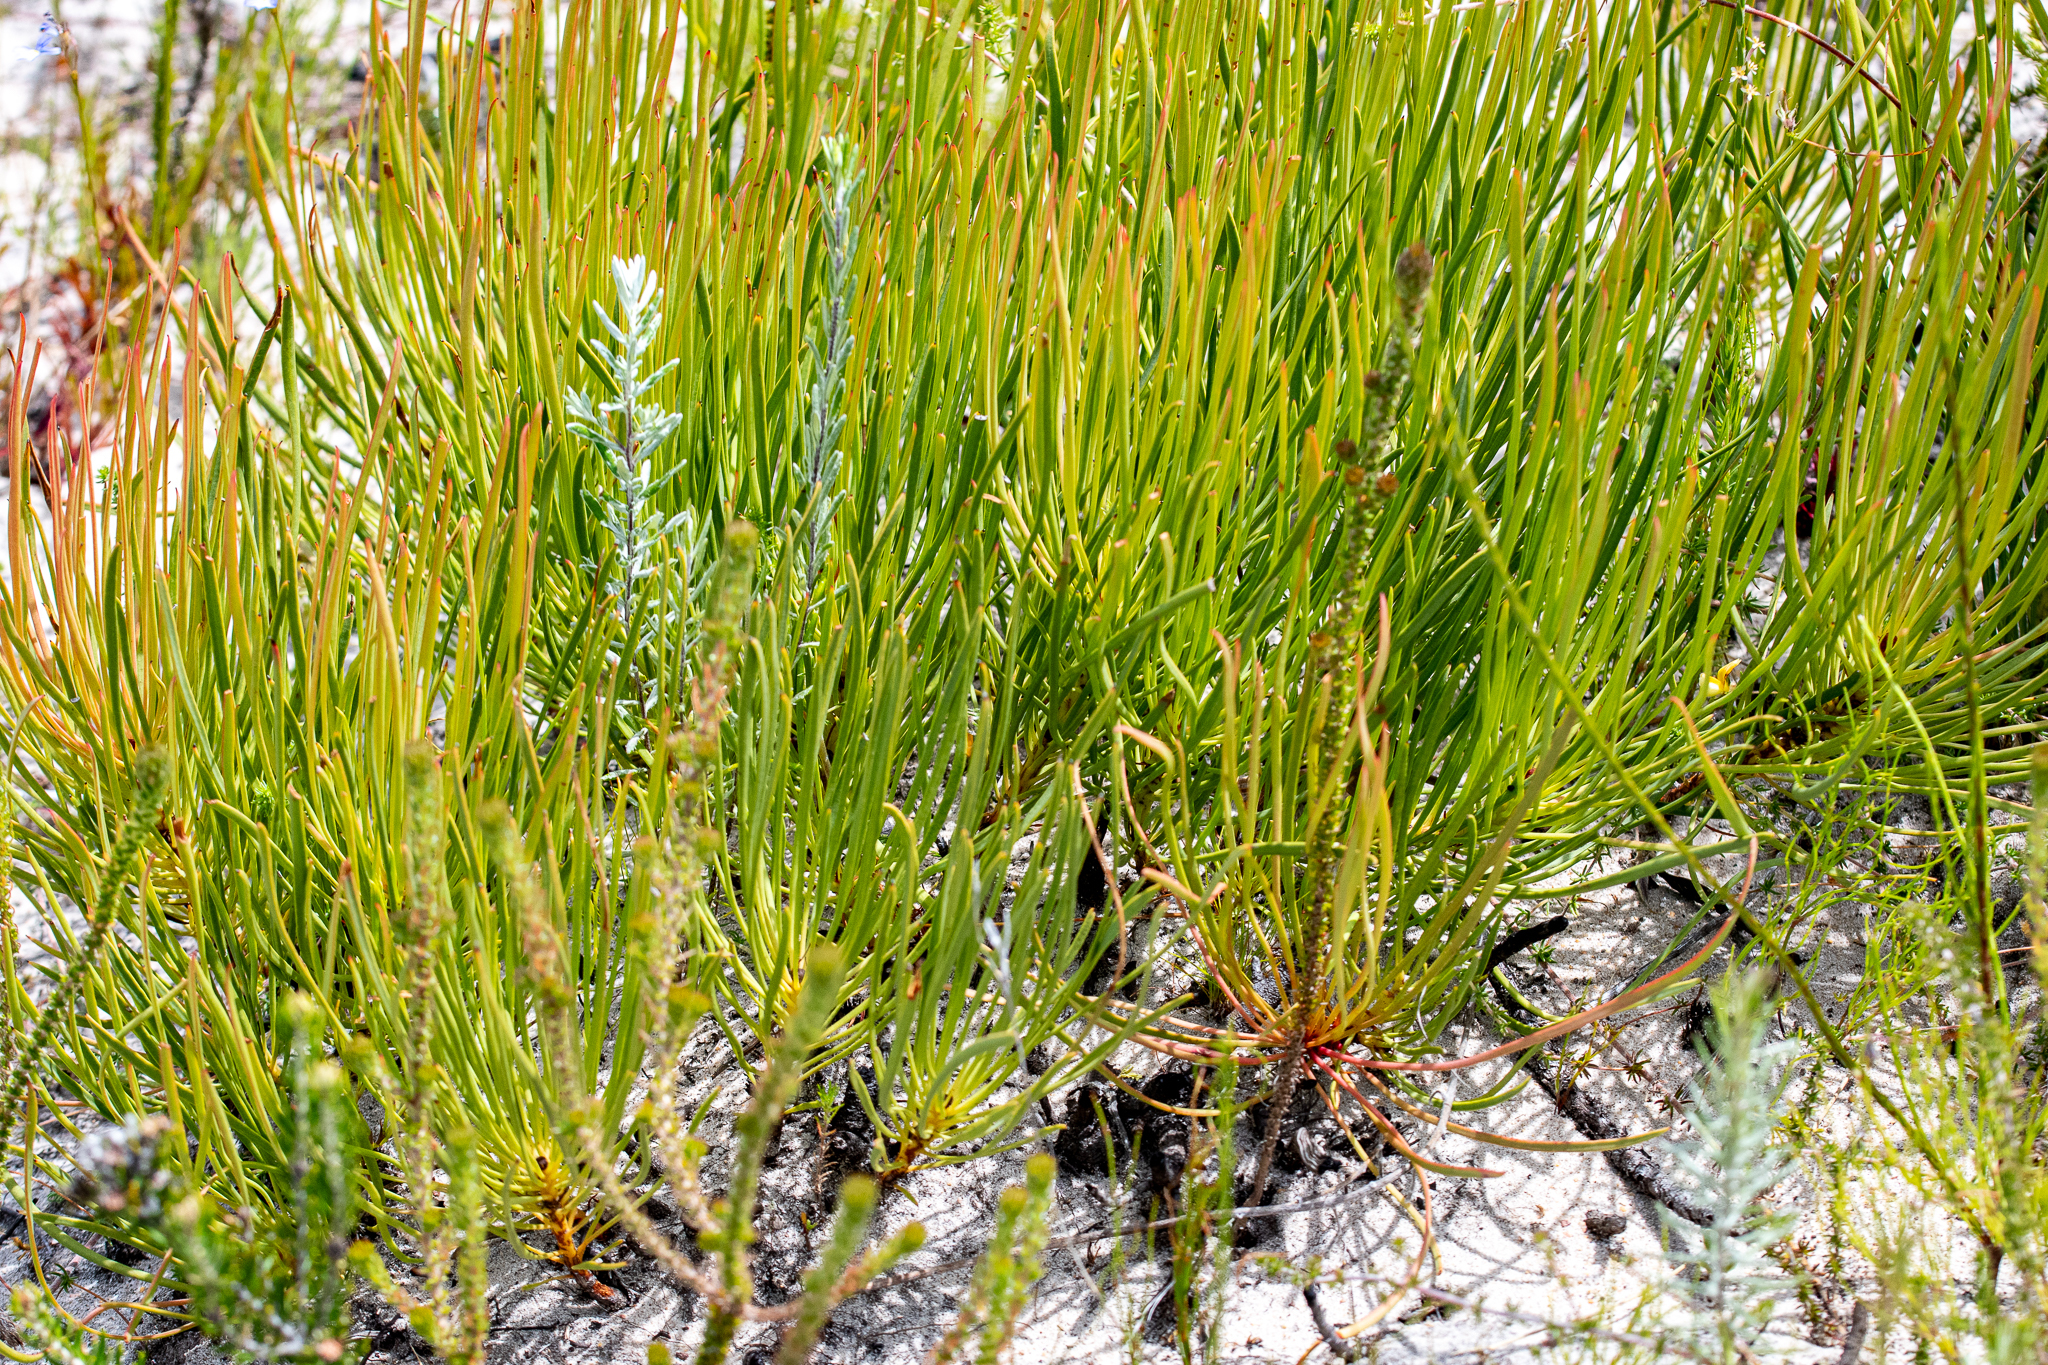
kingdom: Plantae
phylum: Tracheophyta
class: Magnoliopsida
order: Proteales
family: Proteaceae
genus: Protea
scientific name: Protea angustata
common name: Kleinmond sugarbush
